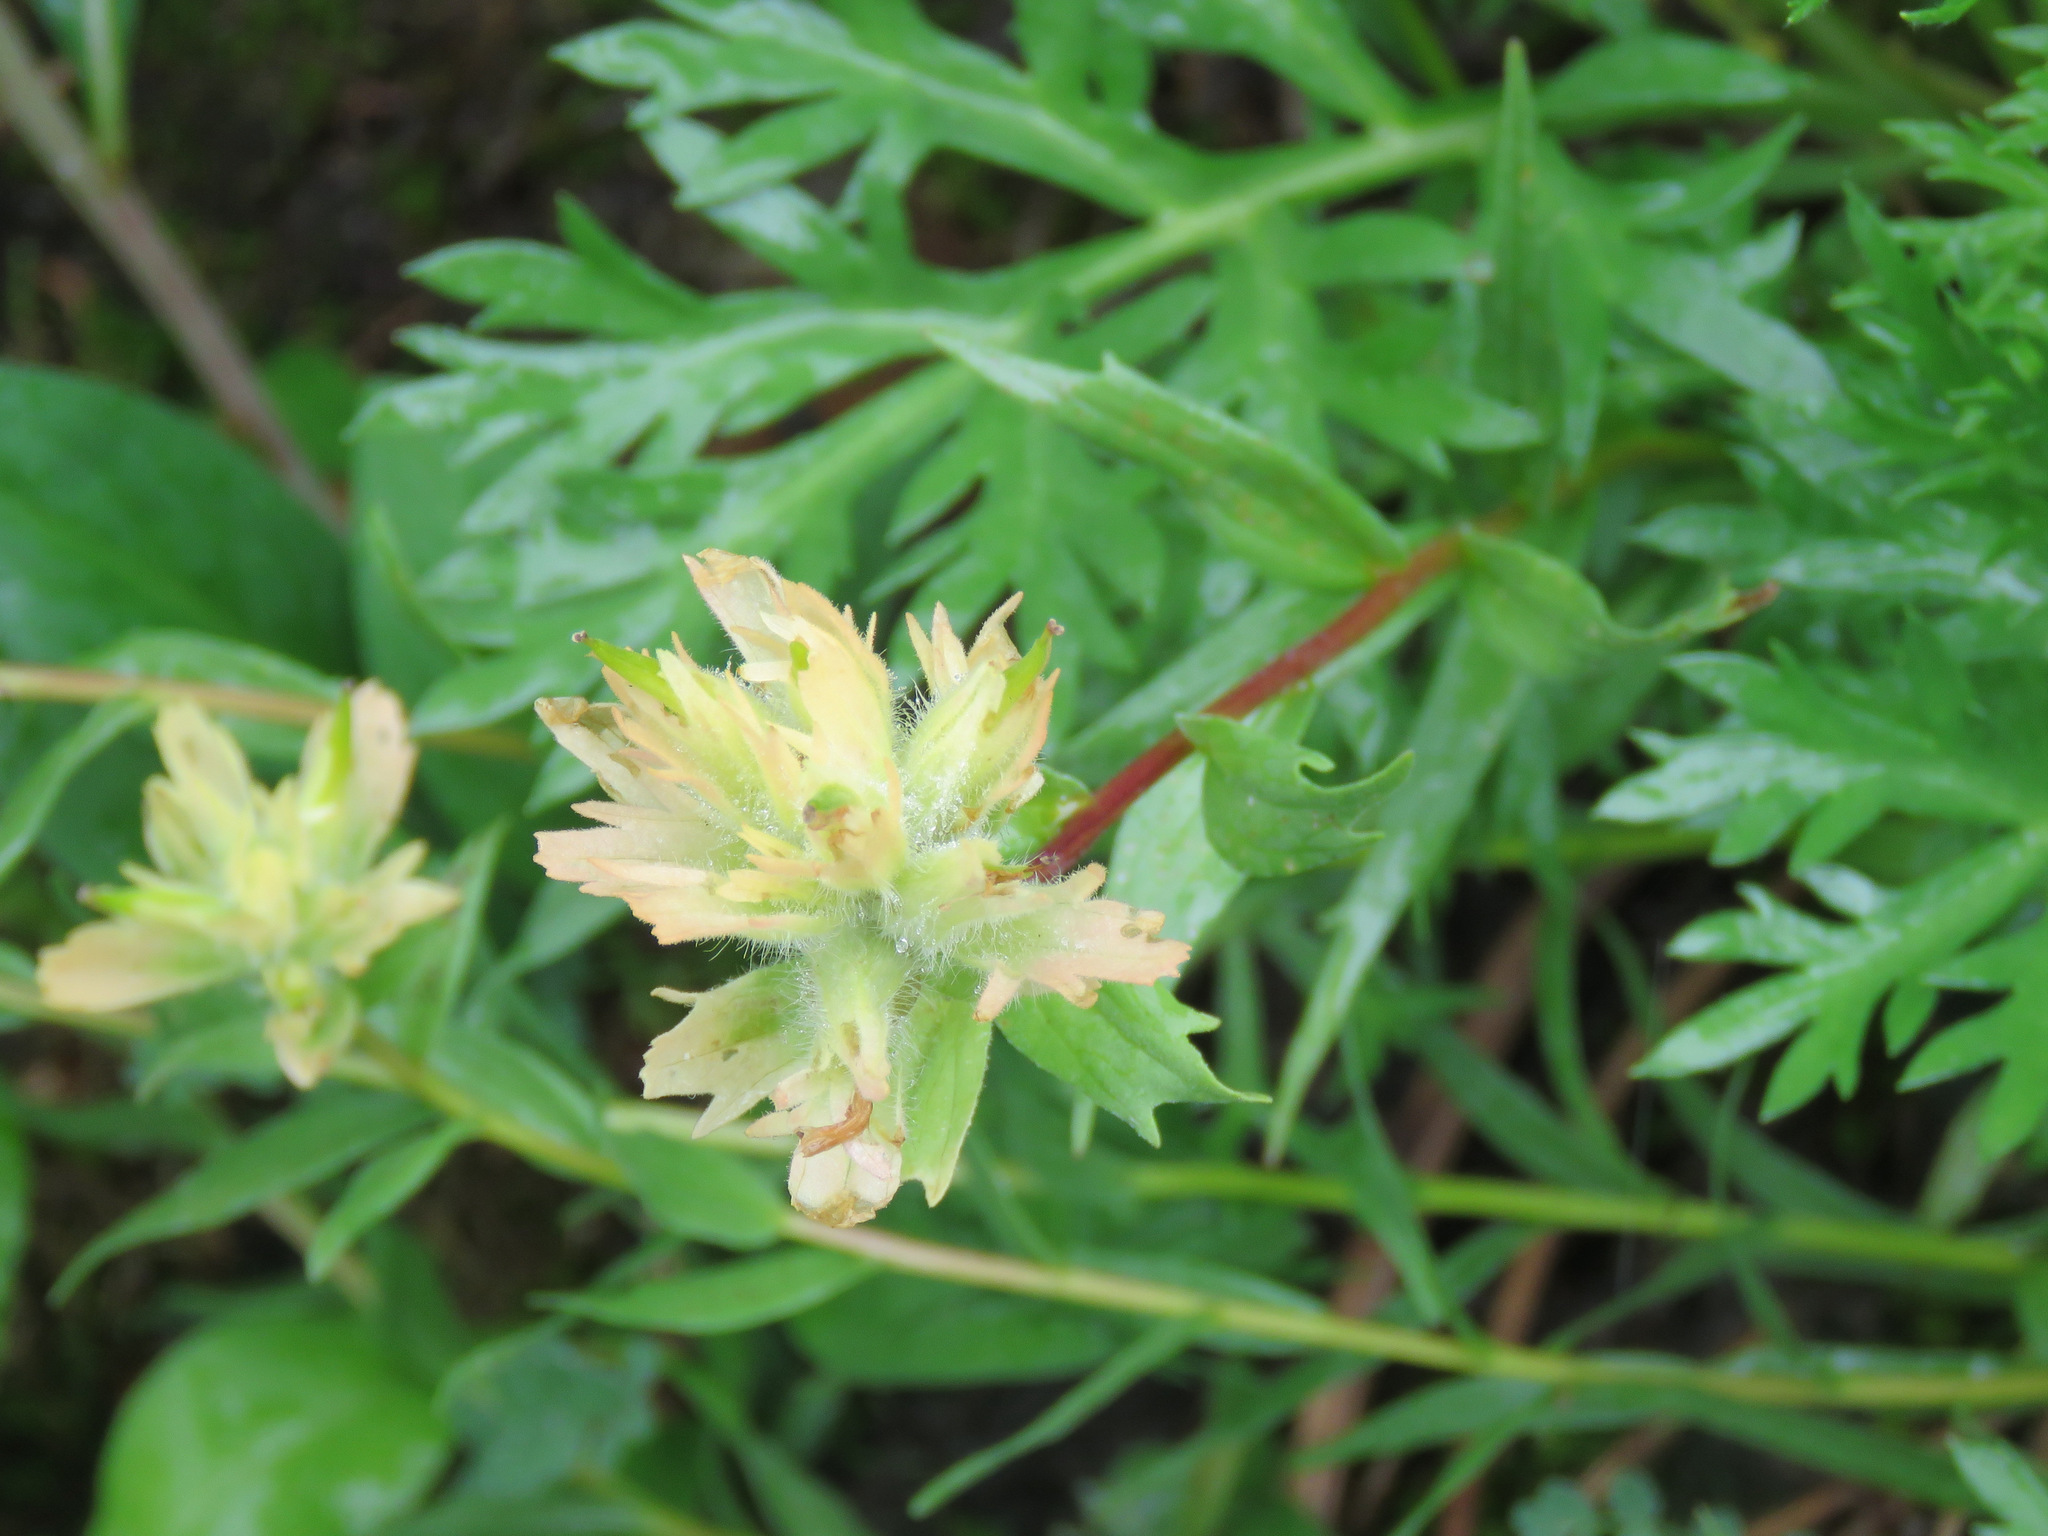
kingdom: Plantae
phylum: Tracheophyta
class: Magnoliopsida
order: Lamiales
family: Orobanchaceae
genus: Castilleja
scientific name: Castilleja miniata
